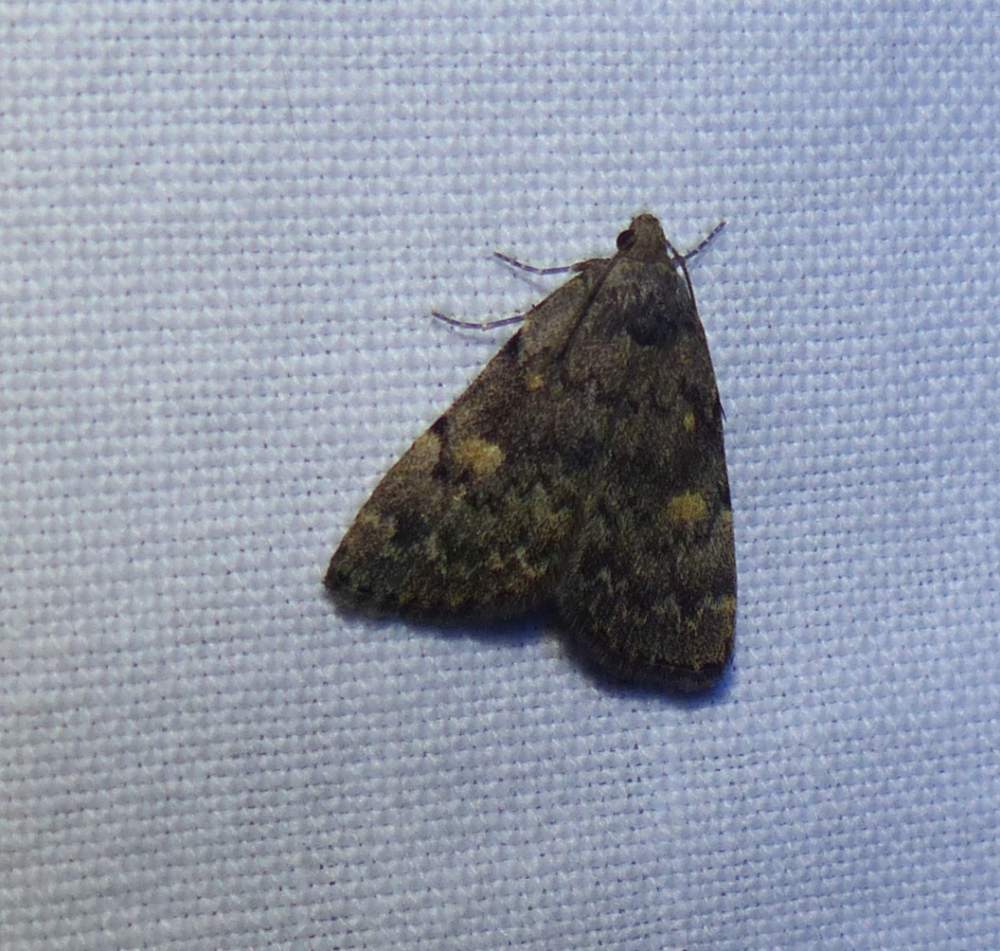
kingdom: Animalia
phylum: Arthropoda
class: Insecta
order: Lepidoptera
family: Erebidae
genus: Idia
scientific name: Idia aemula
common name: Common idia moth
